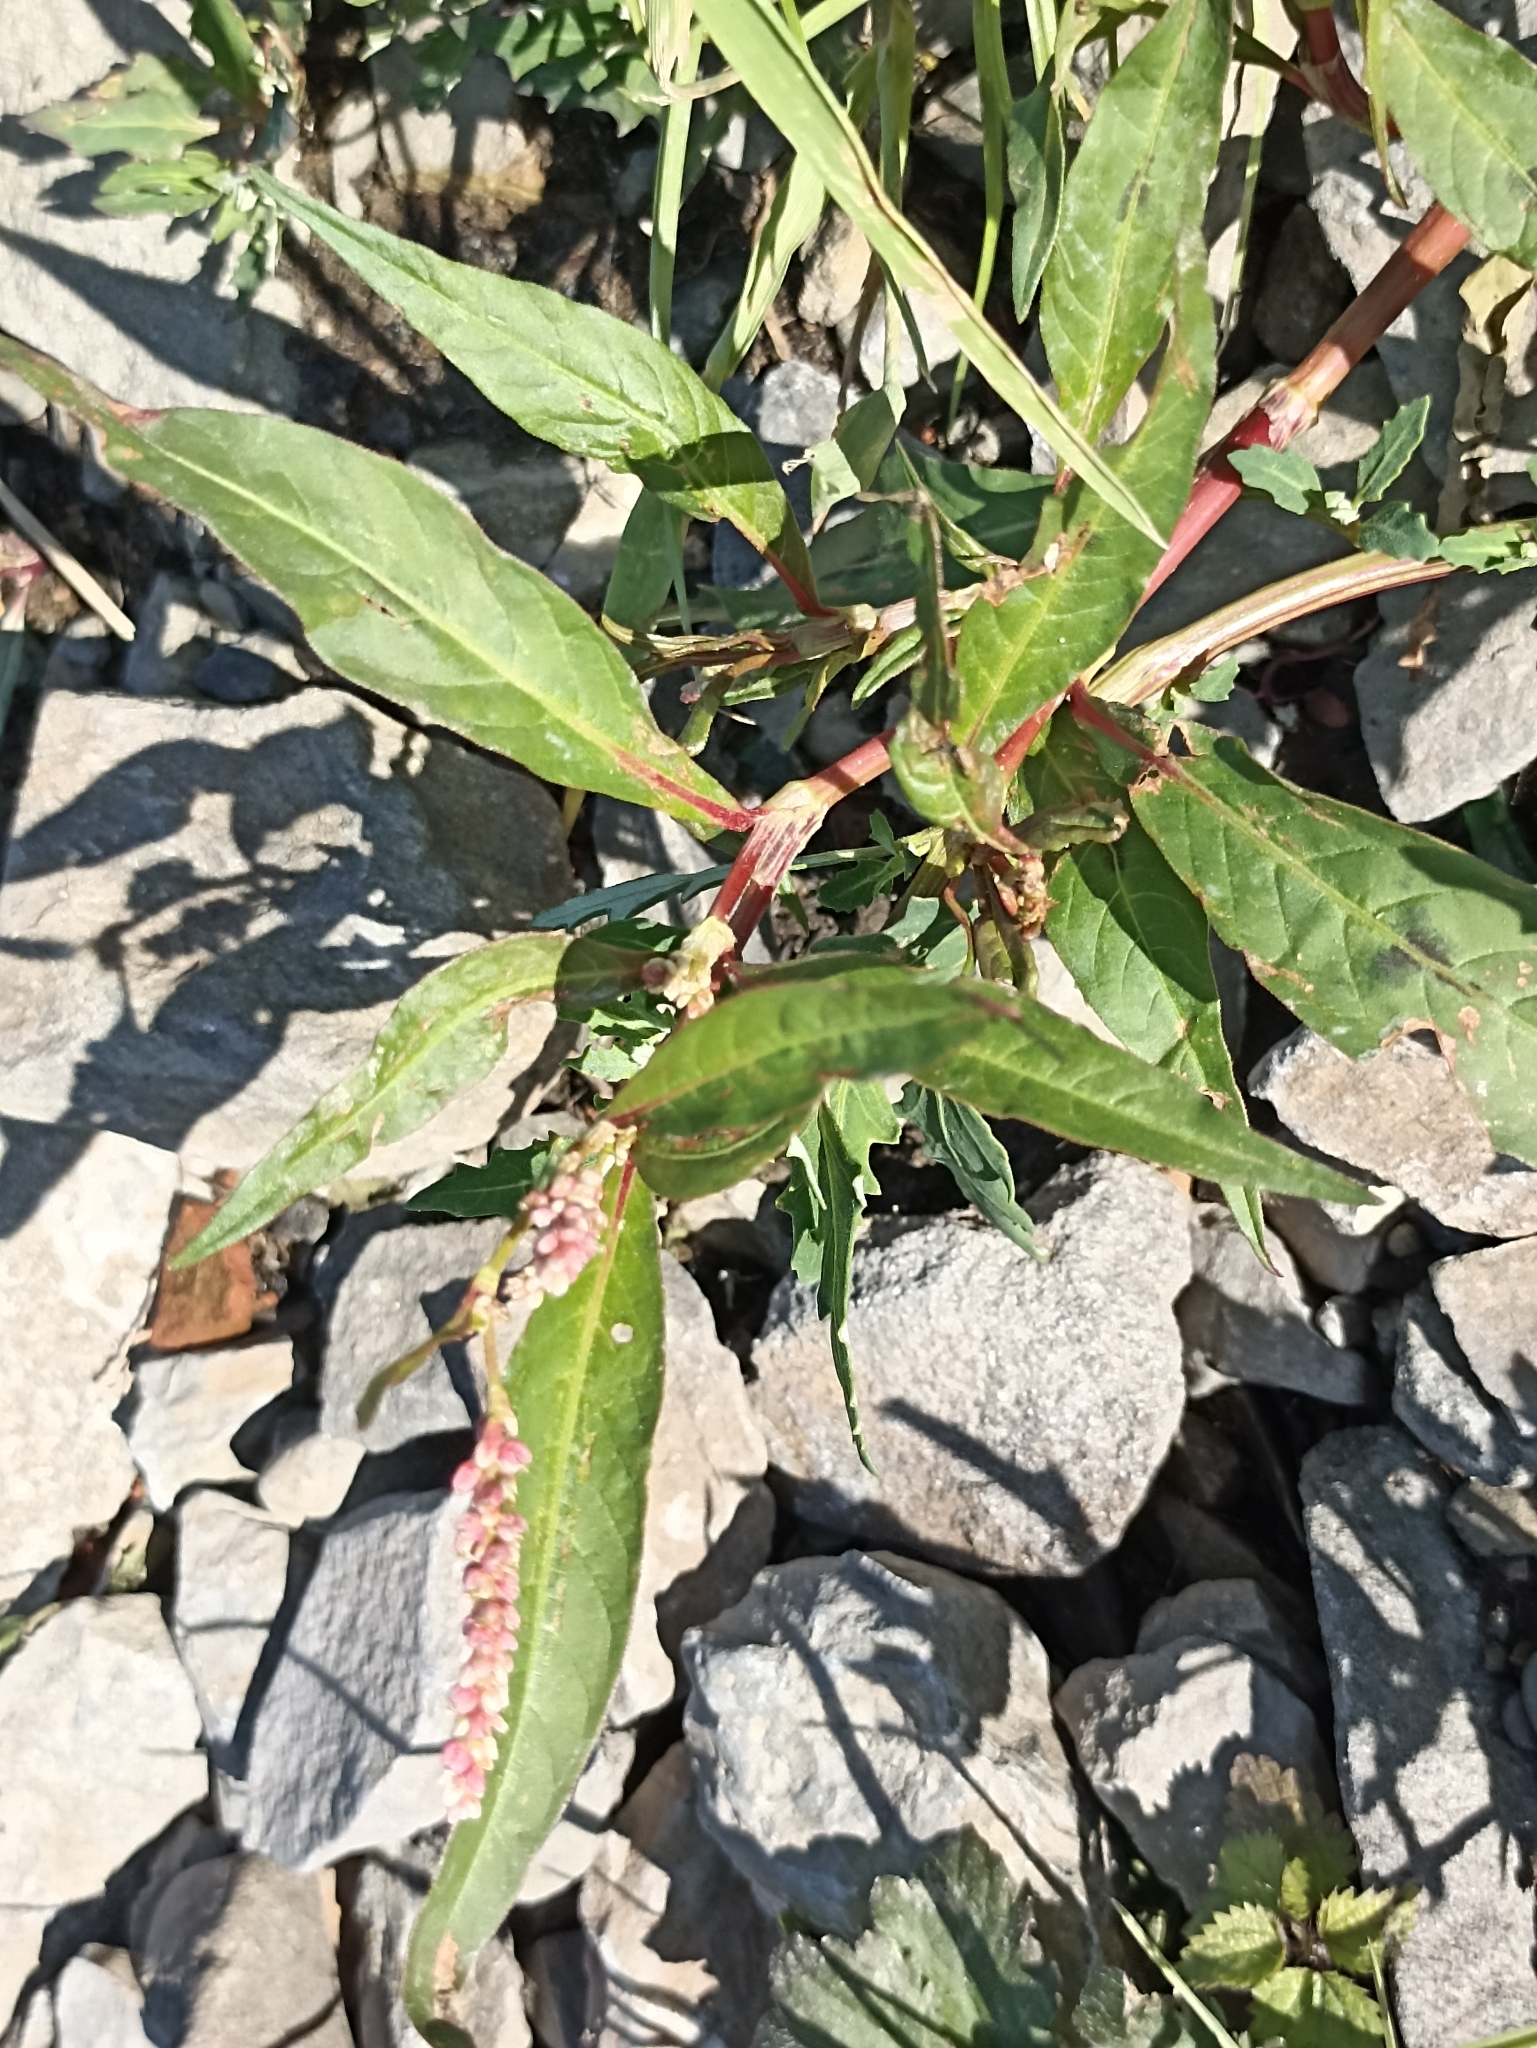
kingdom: Plantae
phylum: Tracheophyta
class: Magnoliopsida
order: Caryophyllales
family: Polygonaceae
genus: Persicaria
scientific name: Persicaria lapathifolia
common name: Curlytop knotweed
